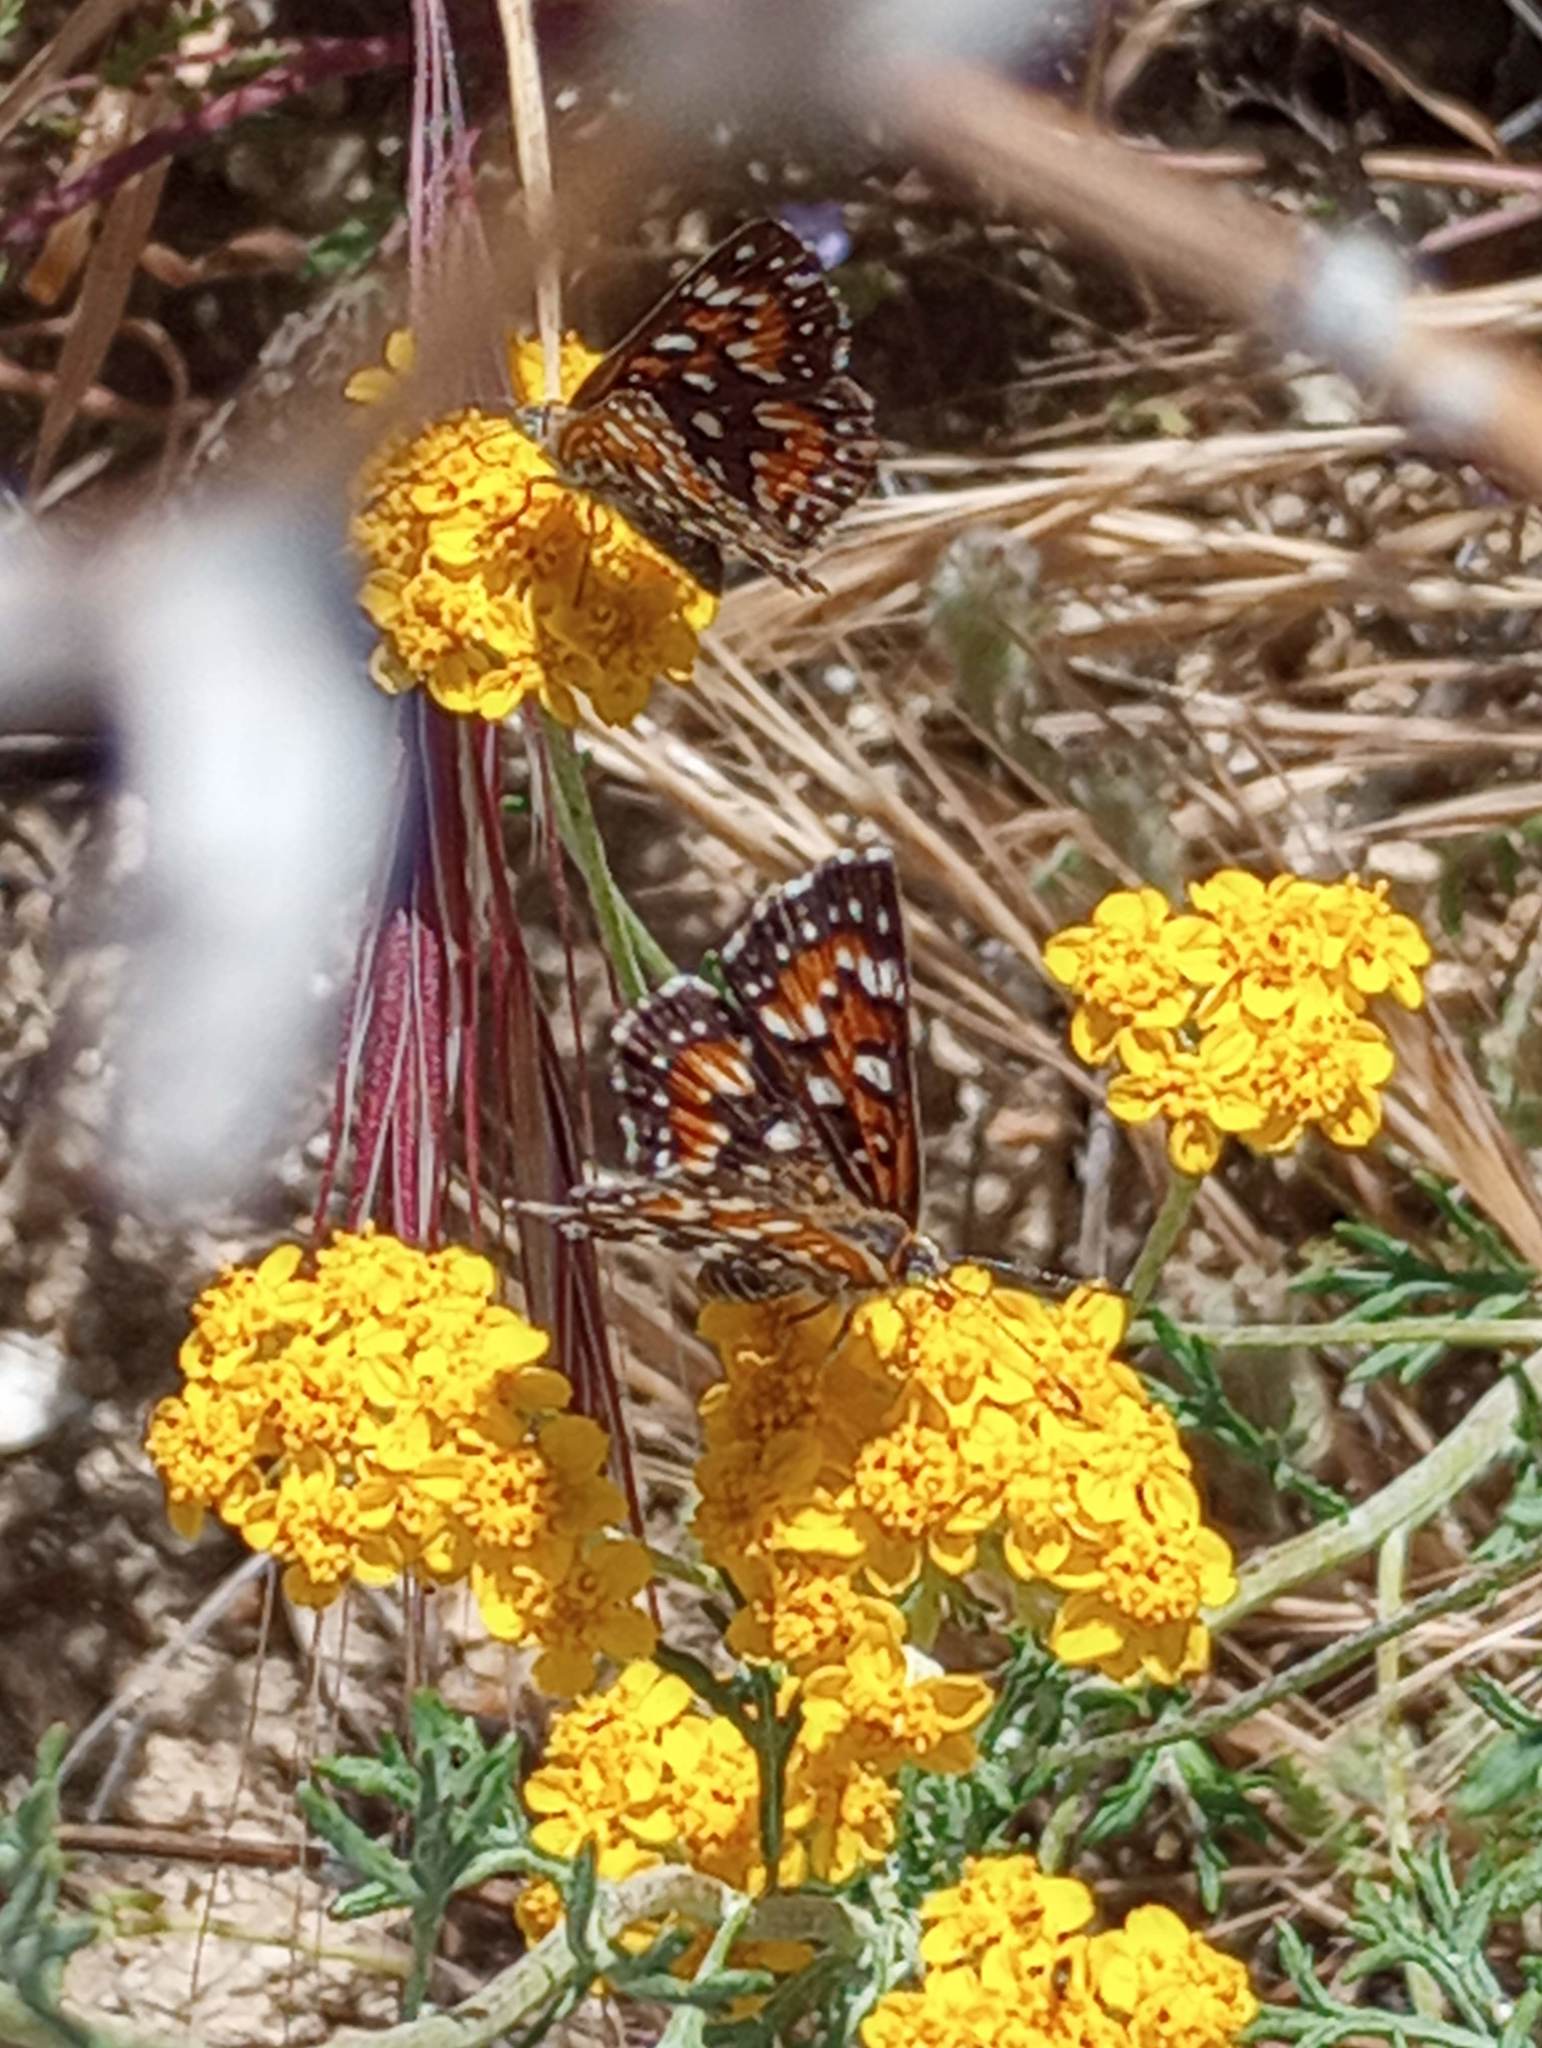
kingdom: Animalia
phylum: Arthropoda
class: Insecta
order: Lepidoptera
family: Riodinidae
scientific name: Riodinidae
